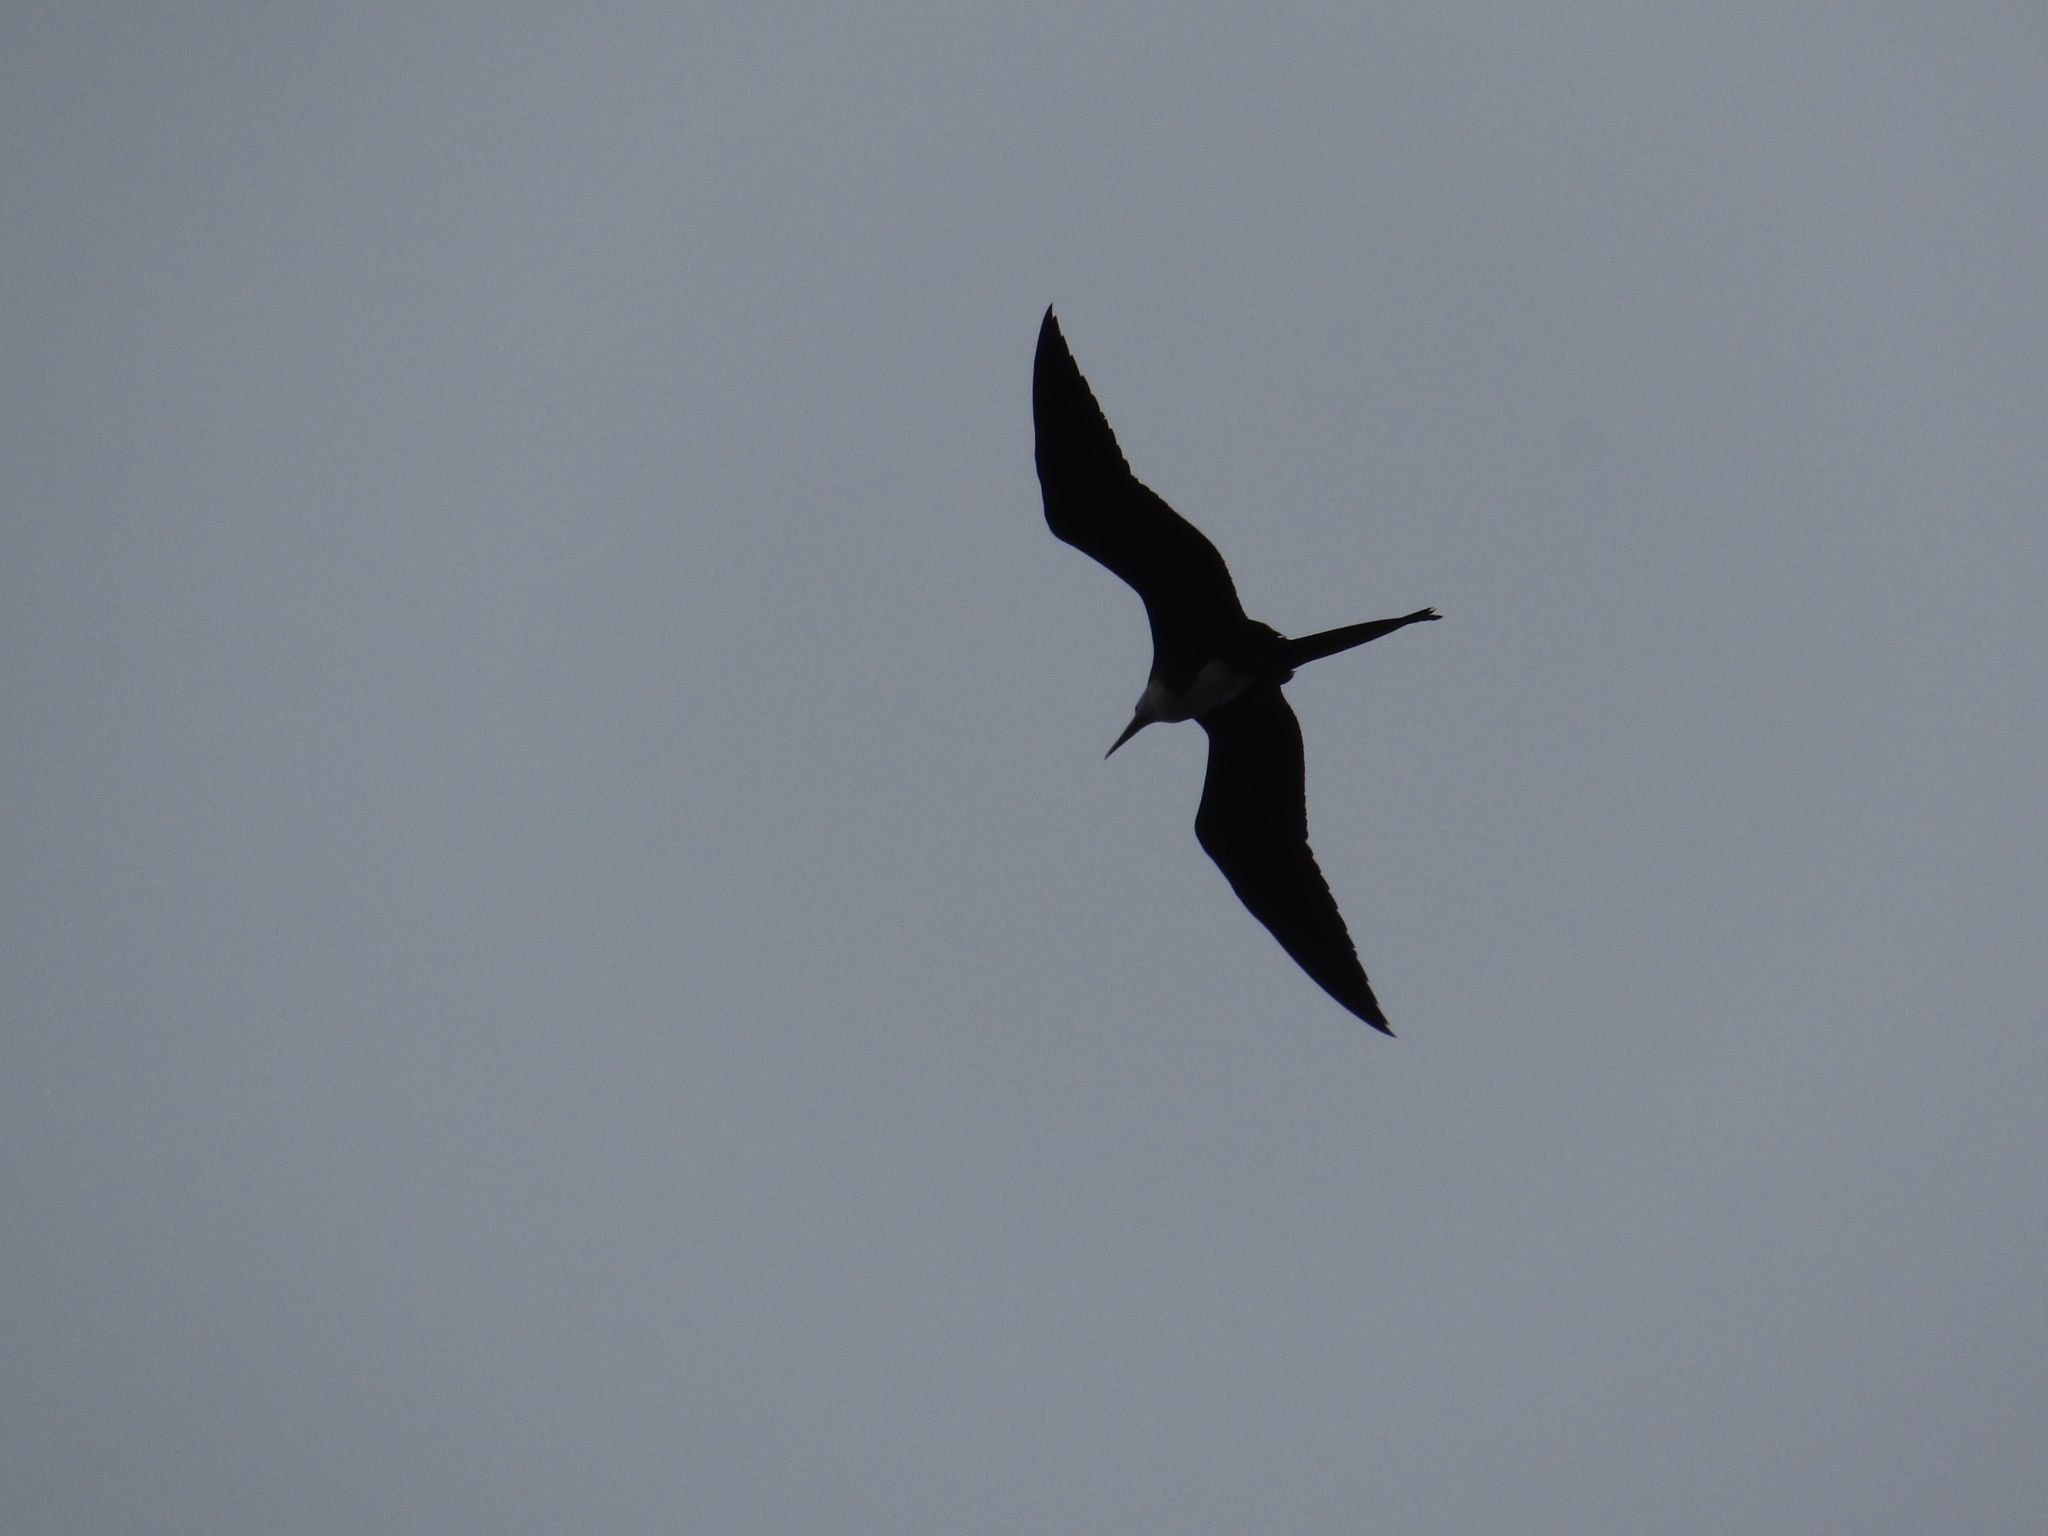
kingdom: Animalia
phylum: Chordata
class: Aves
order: Suliformes
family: Fregatidae
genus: Fregata
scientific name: Fregata magnificens
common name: Magnificent frigatebird
